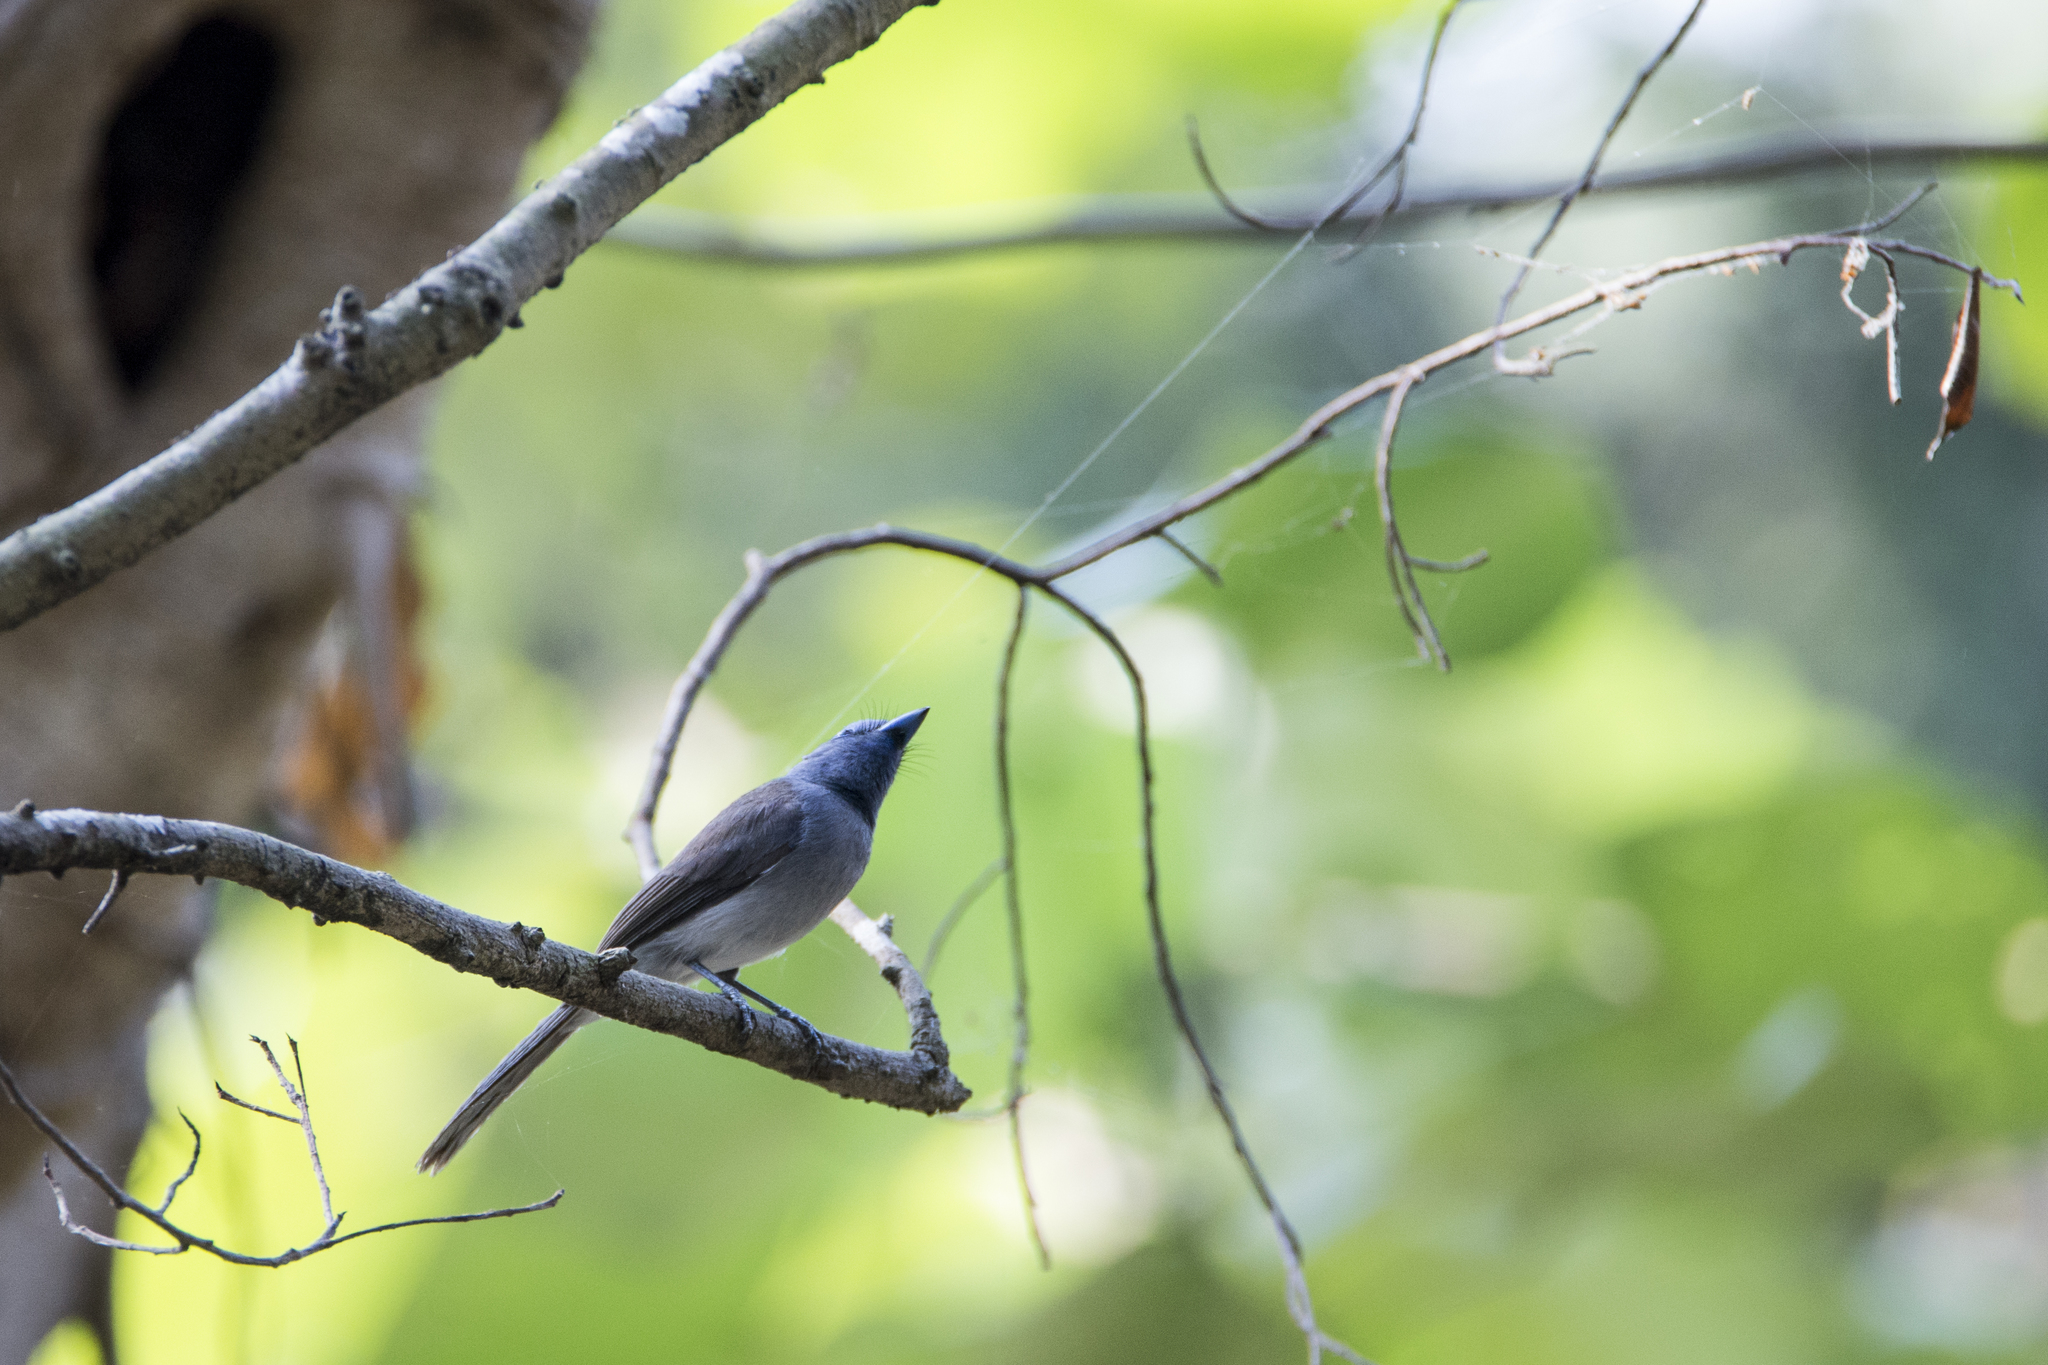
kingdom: Animalia
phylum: Chordata
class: Aves
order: Passeriformes
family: Monarchidae
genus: Hypothymis
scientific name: Hypothymis azurea
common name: Black-naped monarch
